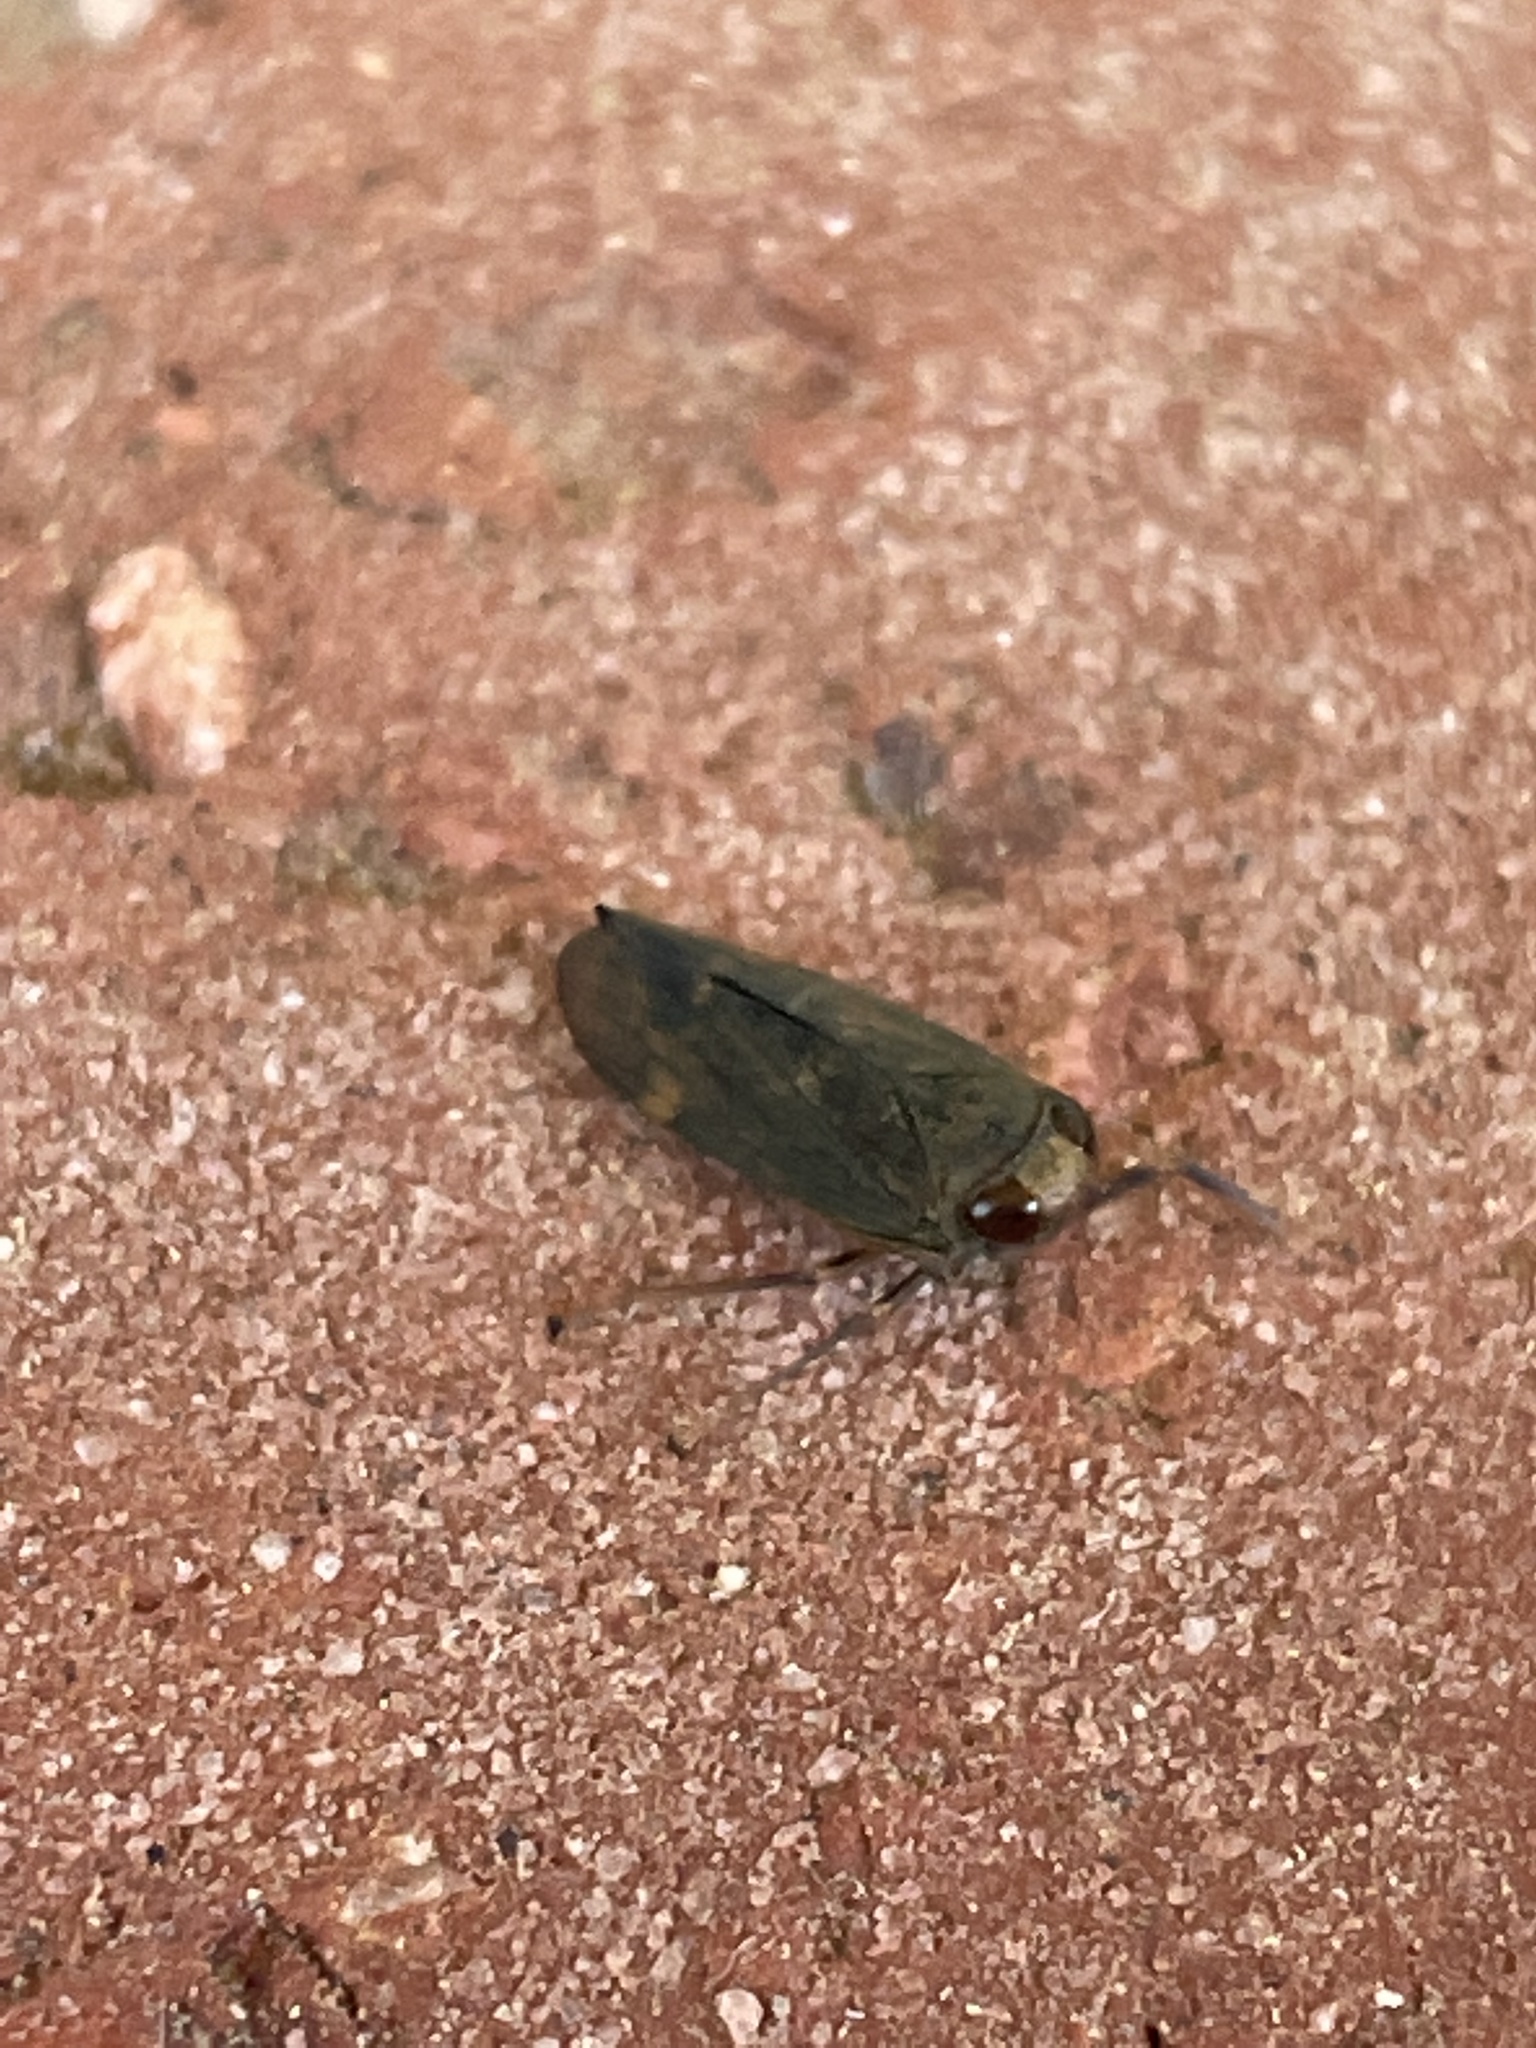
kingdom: Animalia
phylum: Arthropoda
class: Insecta
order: Hemiptera
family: Cicadellidae
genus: Jikradia
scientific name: Jikradia olitoria
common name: Coppery leafhopper
